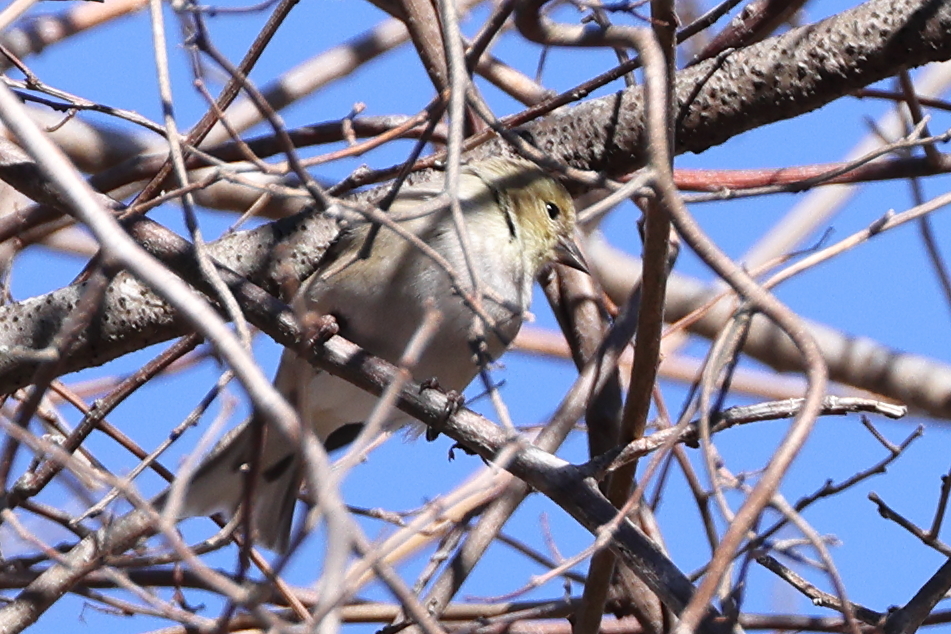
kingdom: Animalia
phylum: Chordata
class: Aves
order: Passeriformes
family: Fringillidae
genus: Spinus
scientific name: Spinus tristis
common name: American goldfinch
